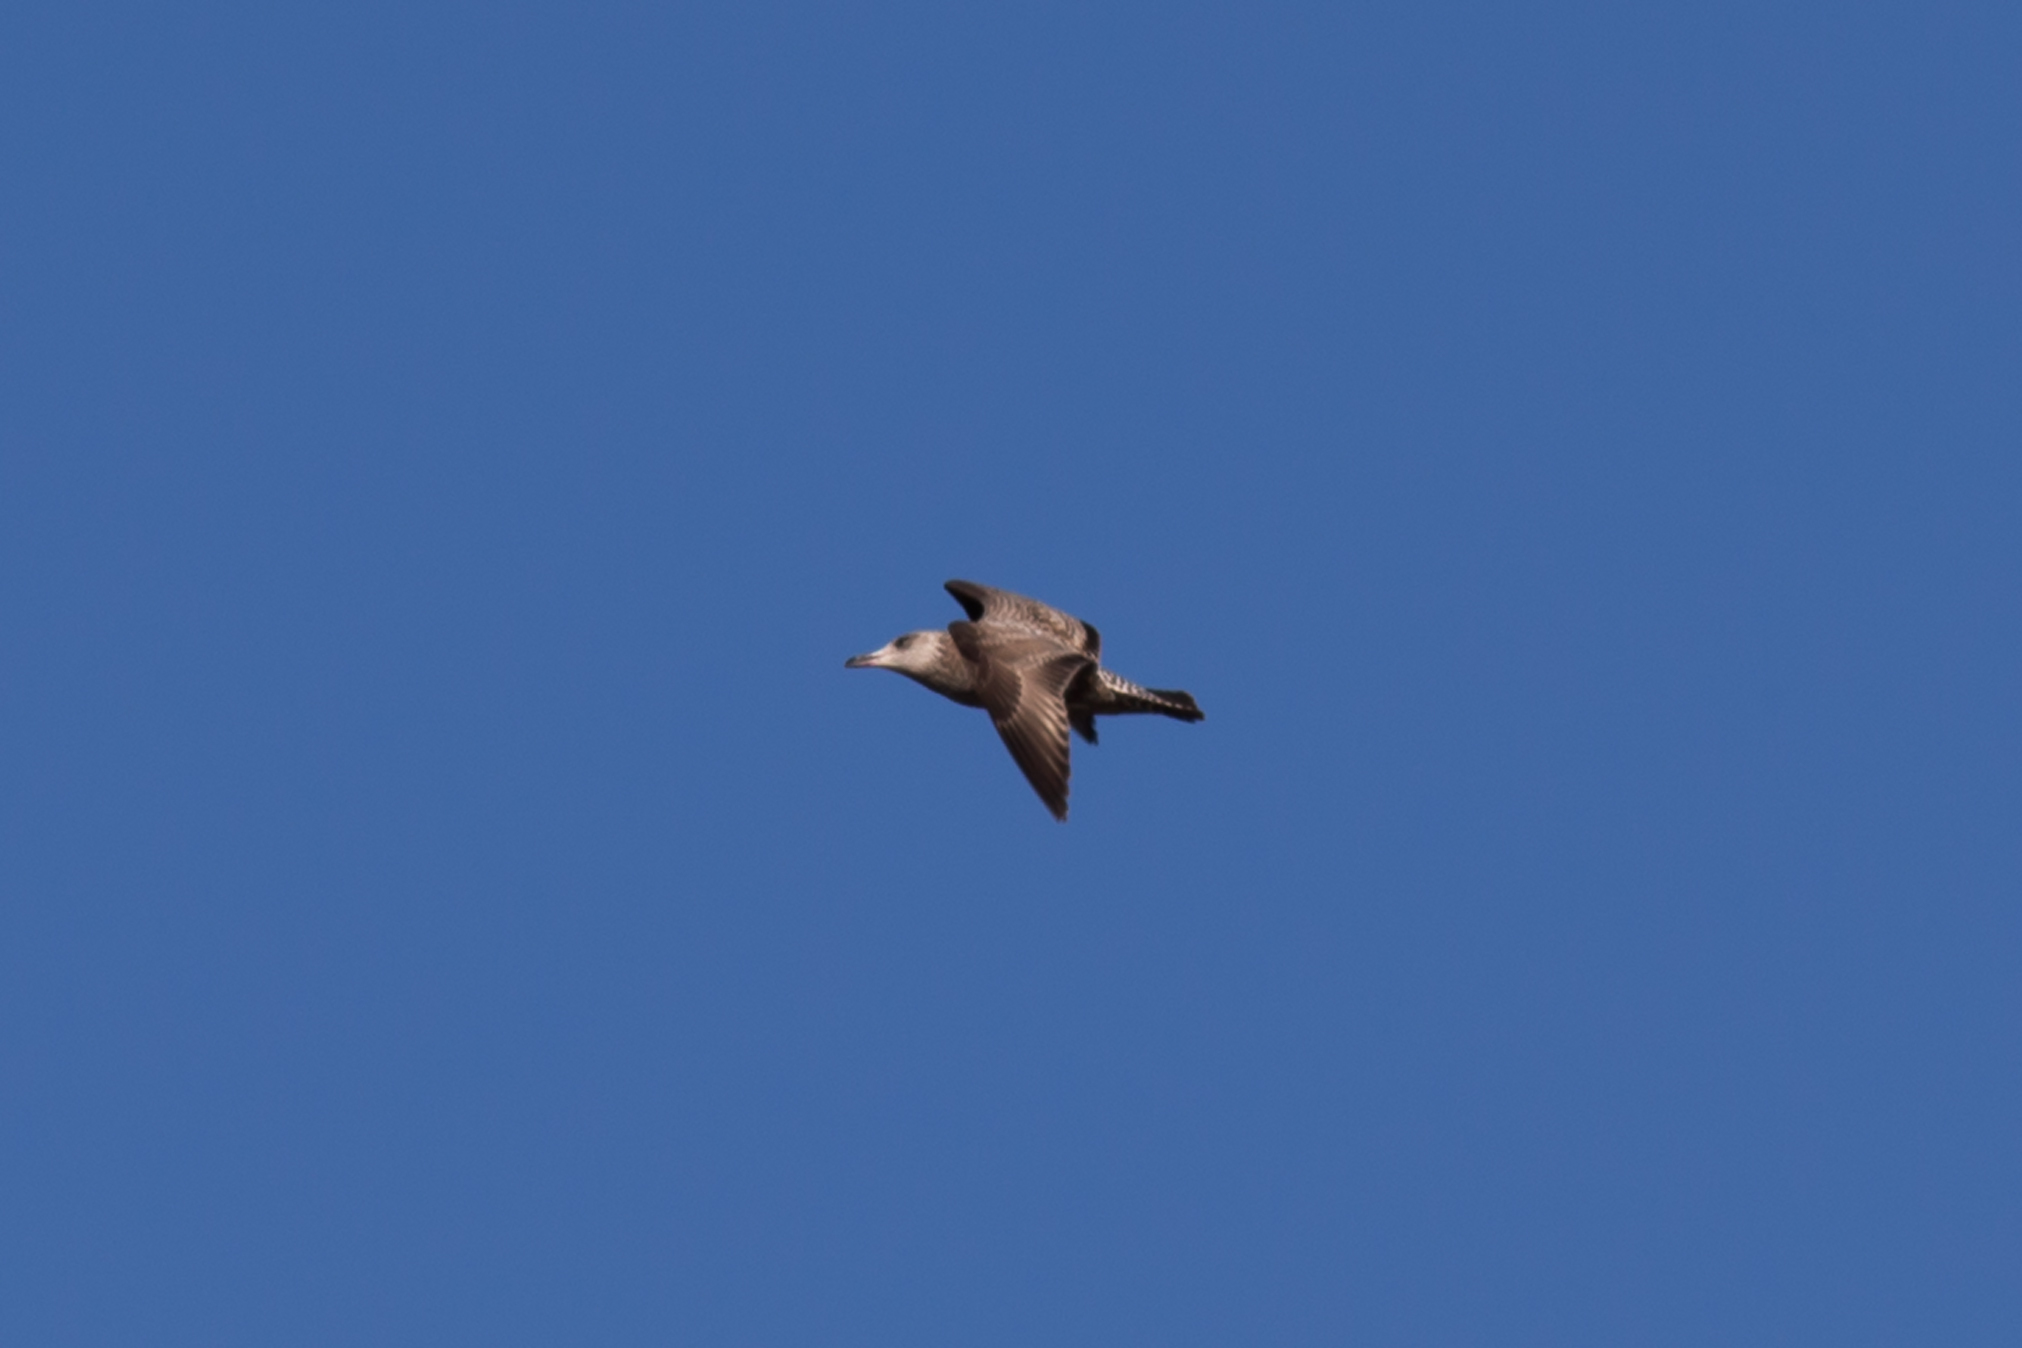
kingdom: Animalia
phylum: Chordata
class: Aves
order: Charadriiformes
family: Laridae
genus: Larus
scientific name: Larus argentatus
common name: Herring gull
